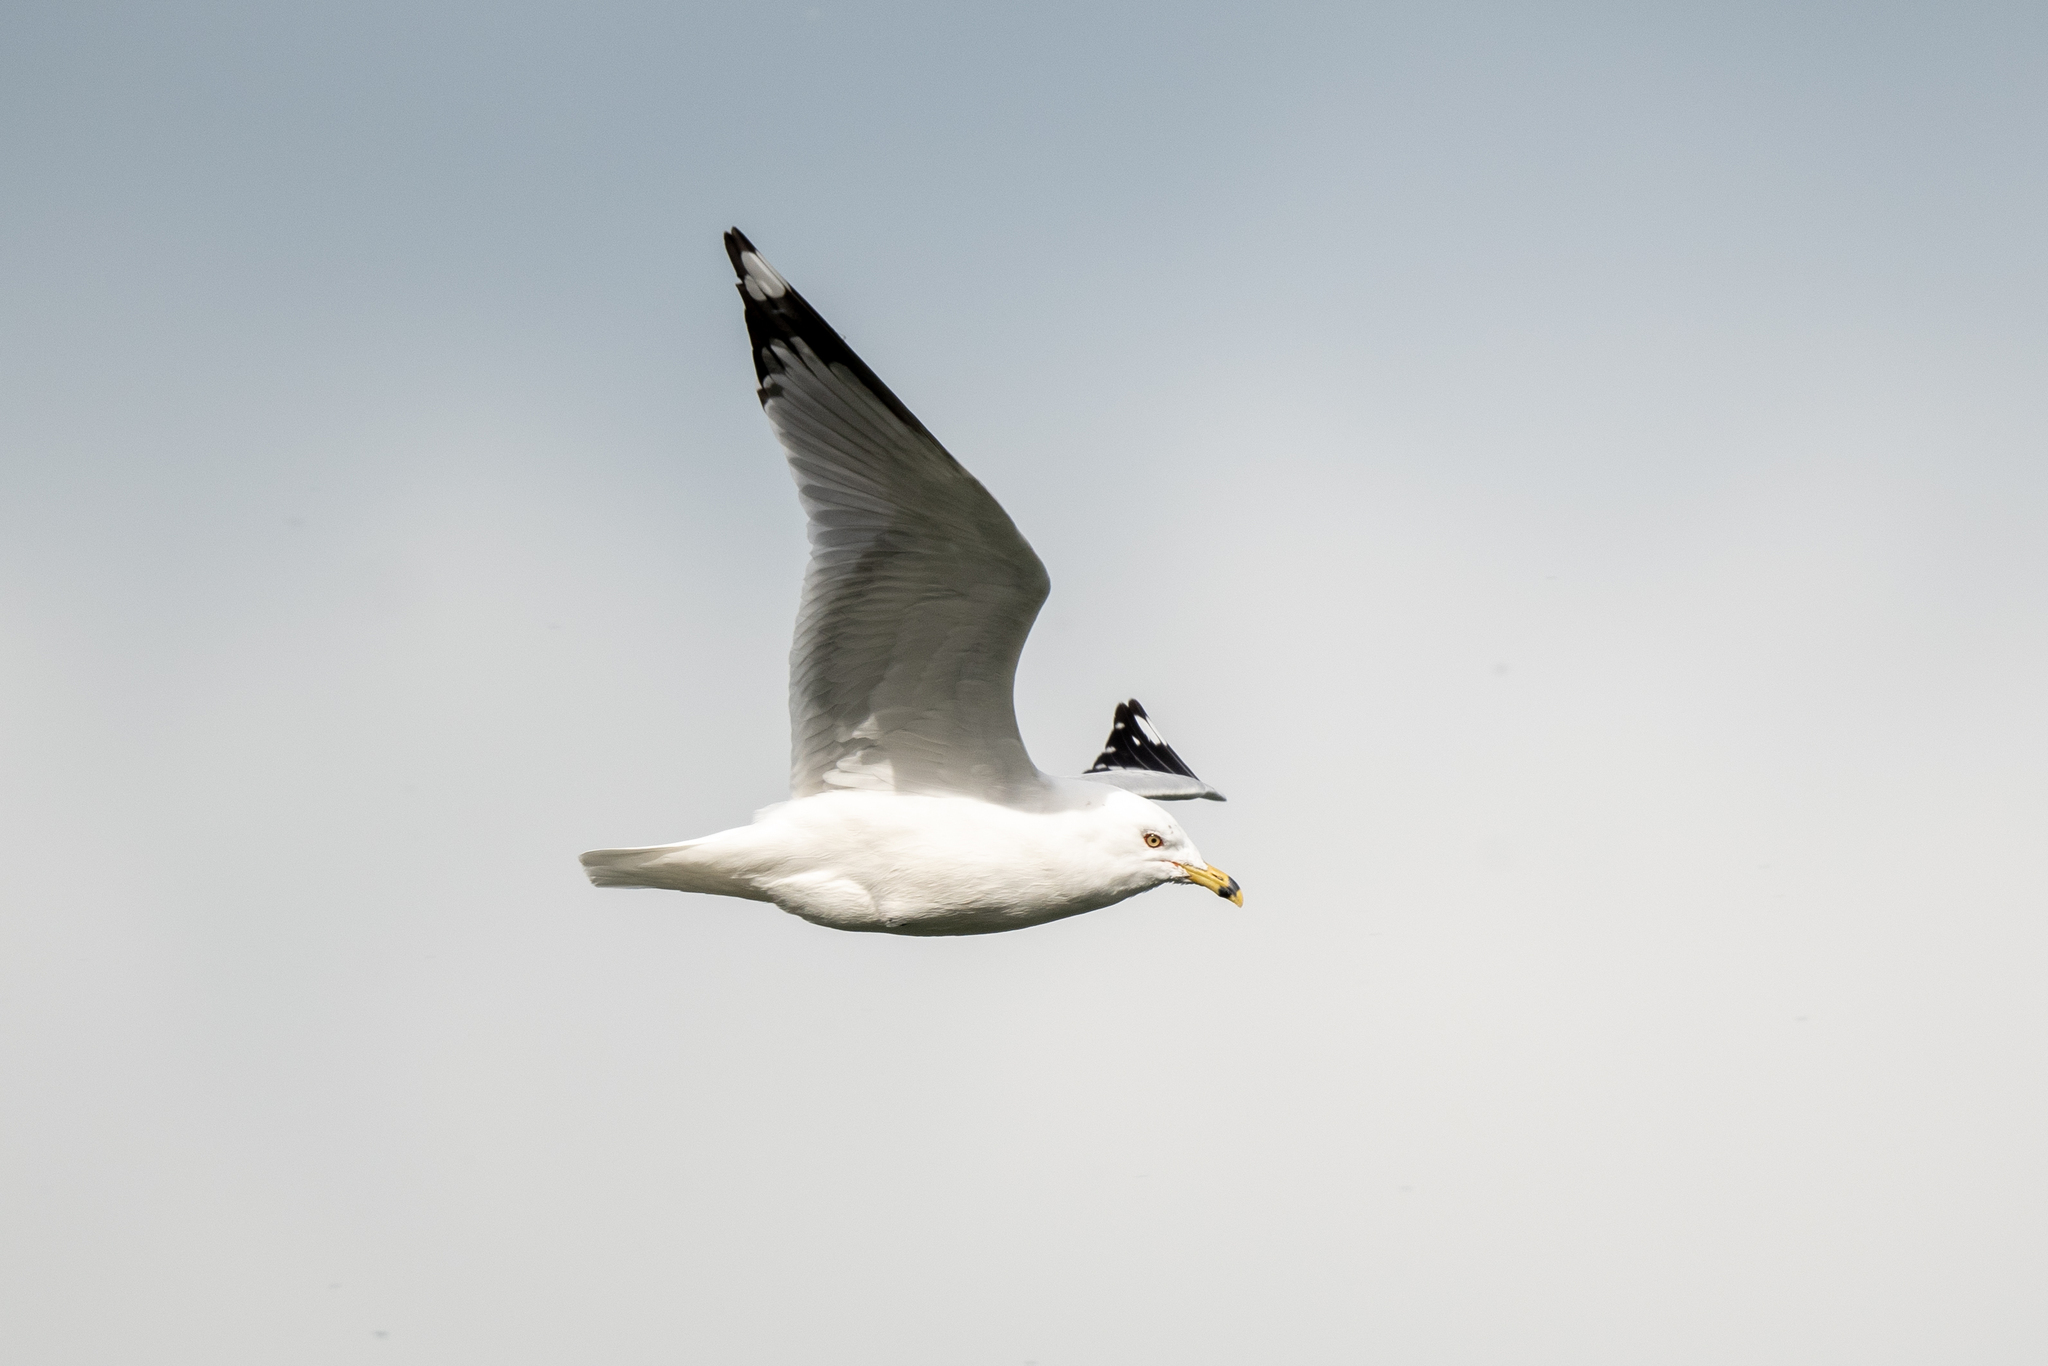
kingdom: Animalia
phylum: Chordata
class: Aves
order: Charadriiformes
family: Laridae
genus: Larus
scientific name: Larus delawarensis
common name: Ring-billed gull
